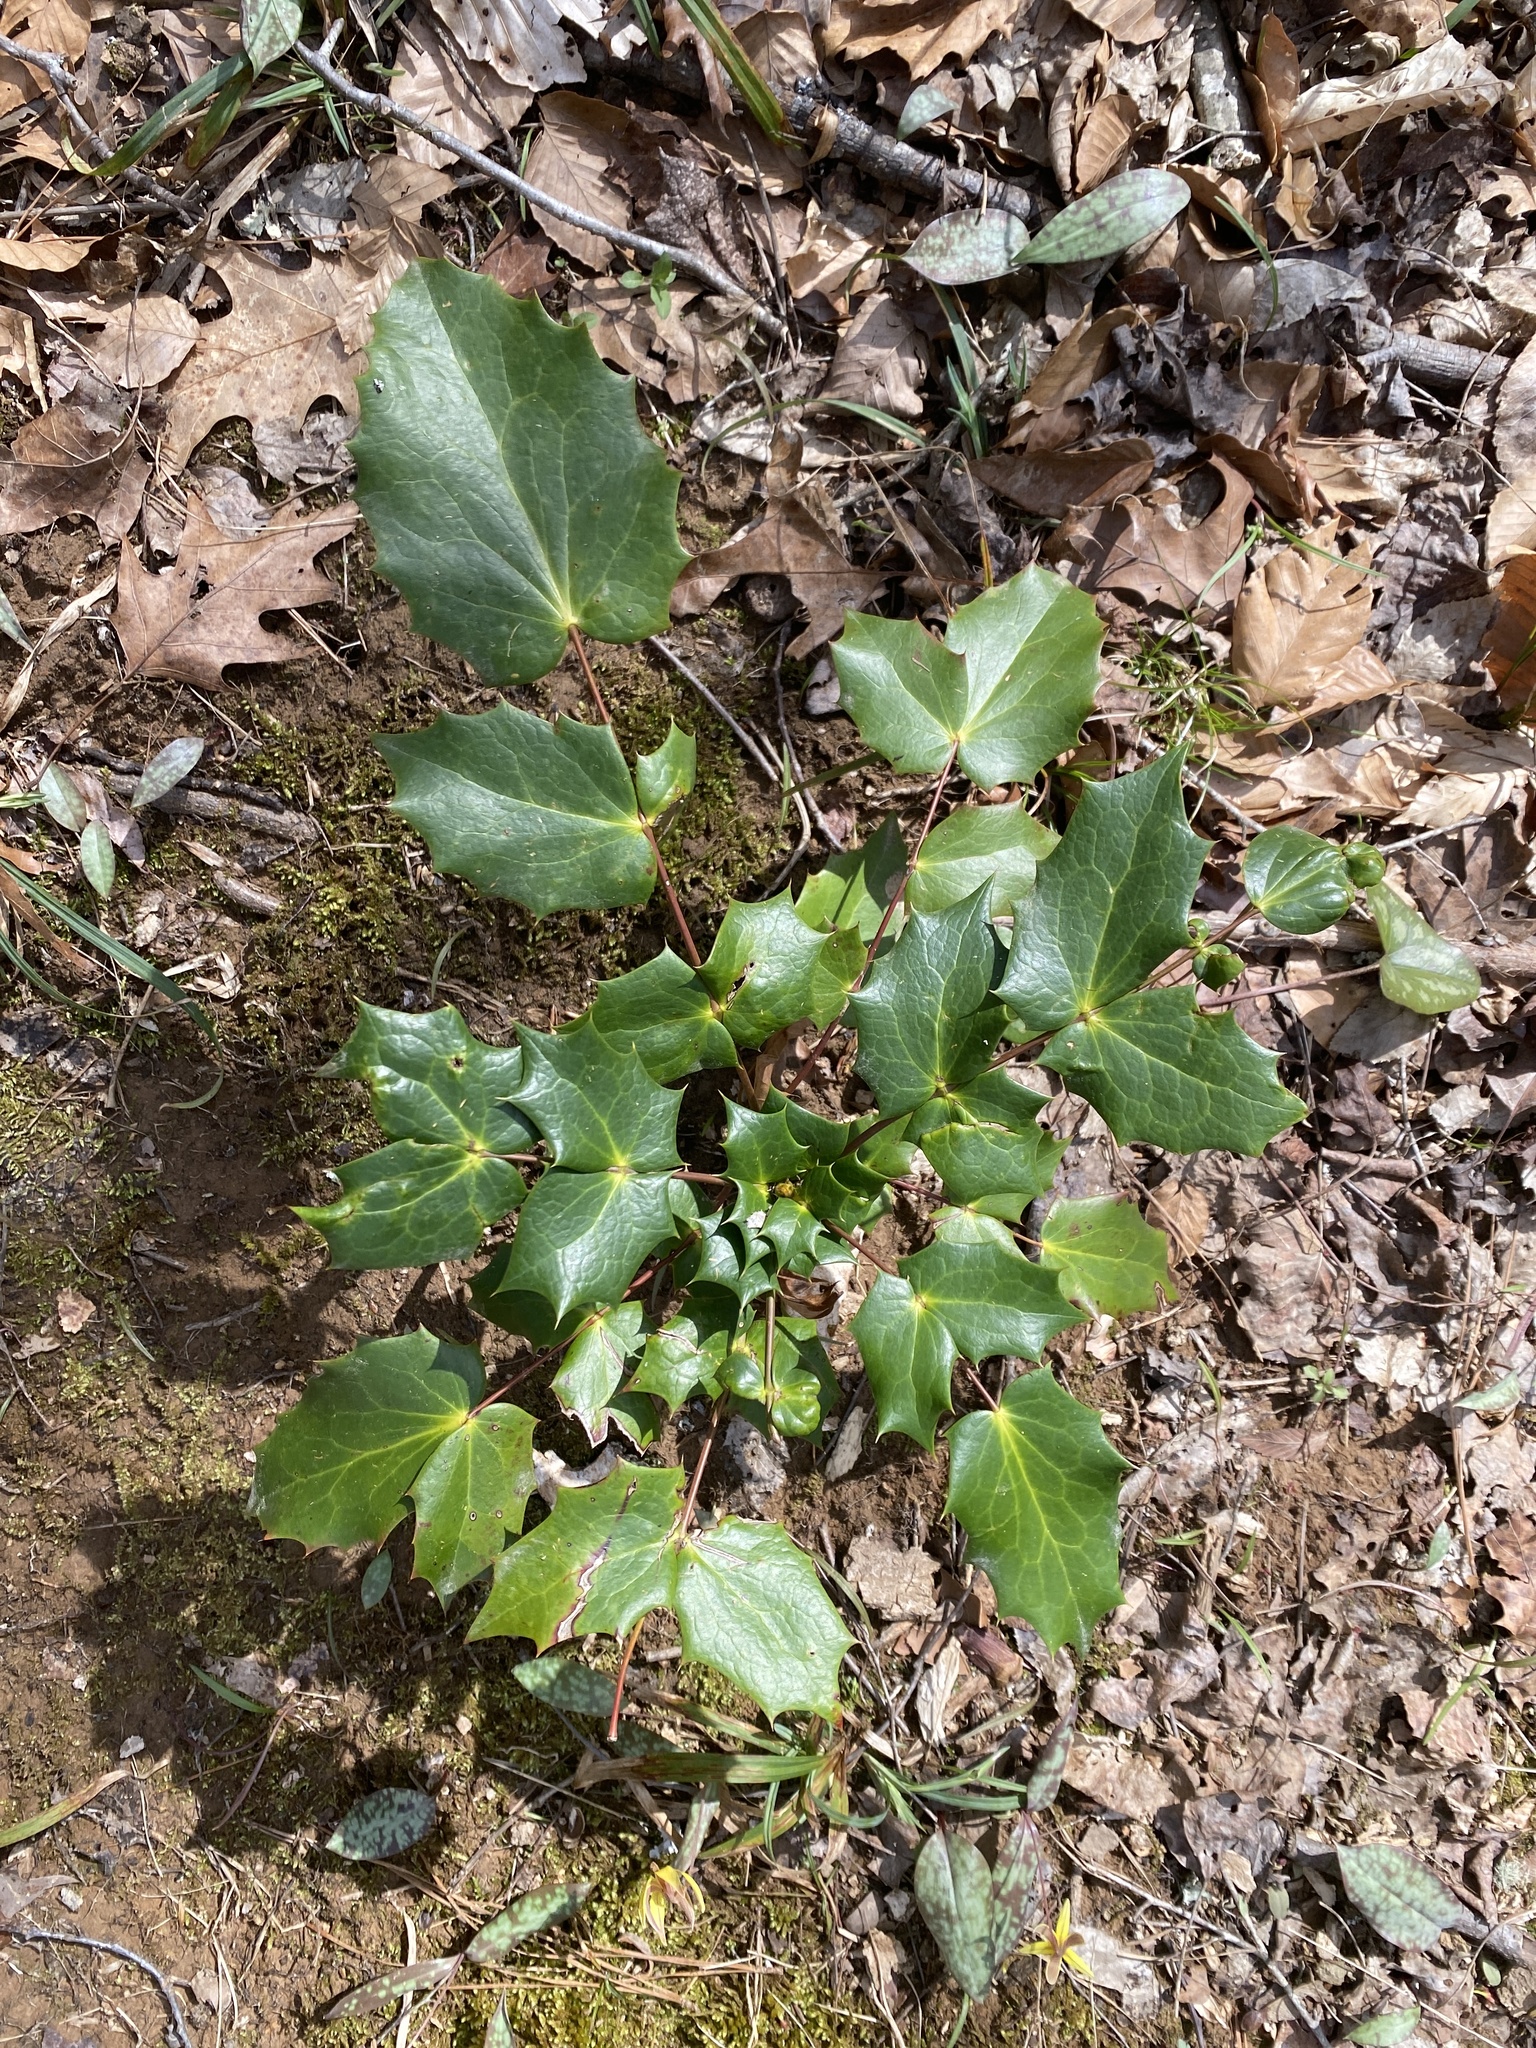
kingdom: Plantae
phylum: Tracheophyta
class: Magnoliopsida
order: Ranunculales
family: Berberidaceae
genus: Mahonia
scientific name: Mahonia bealei
